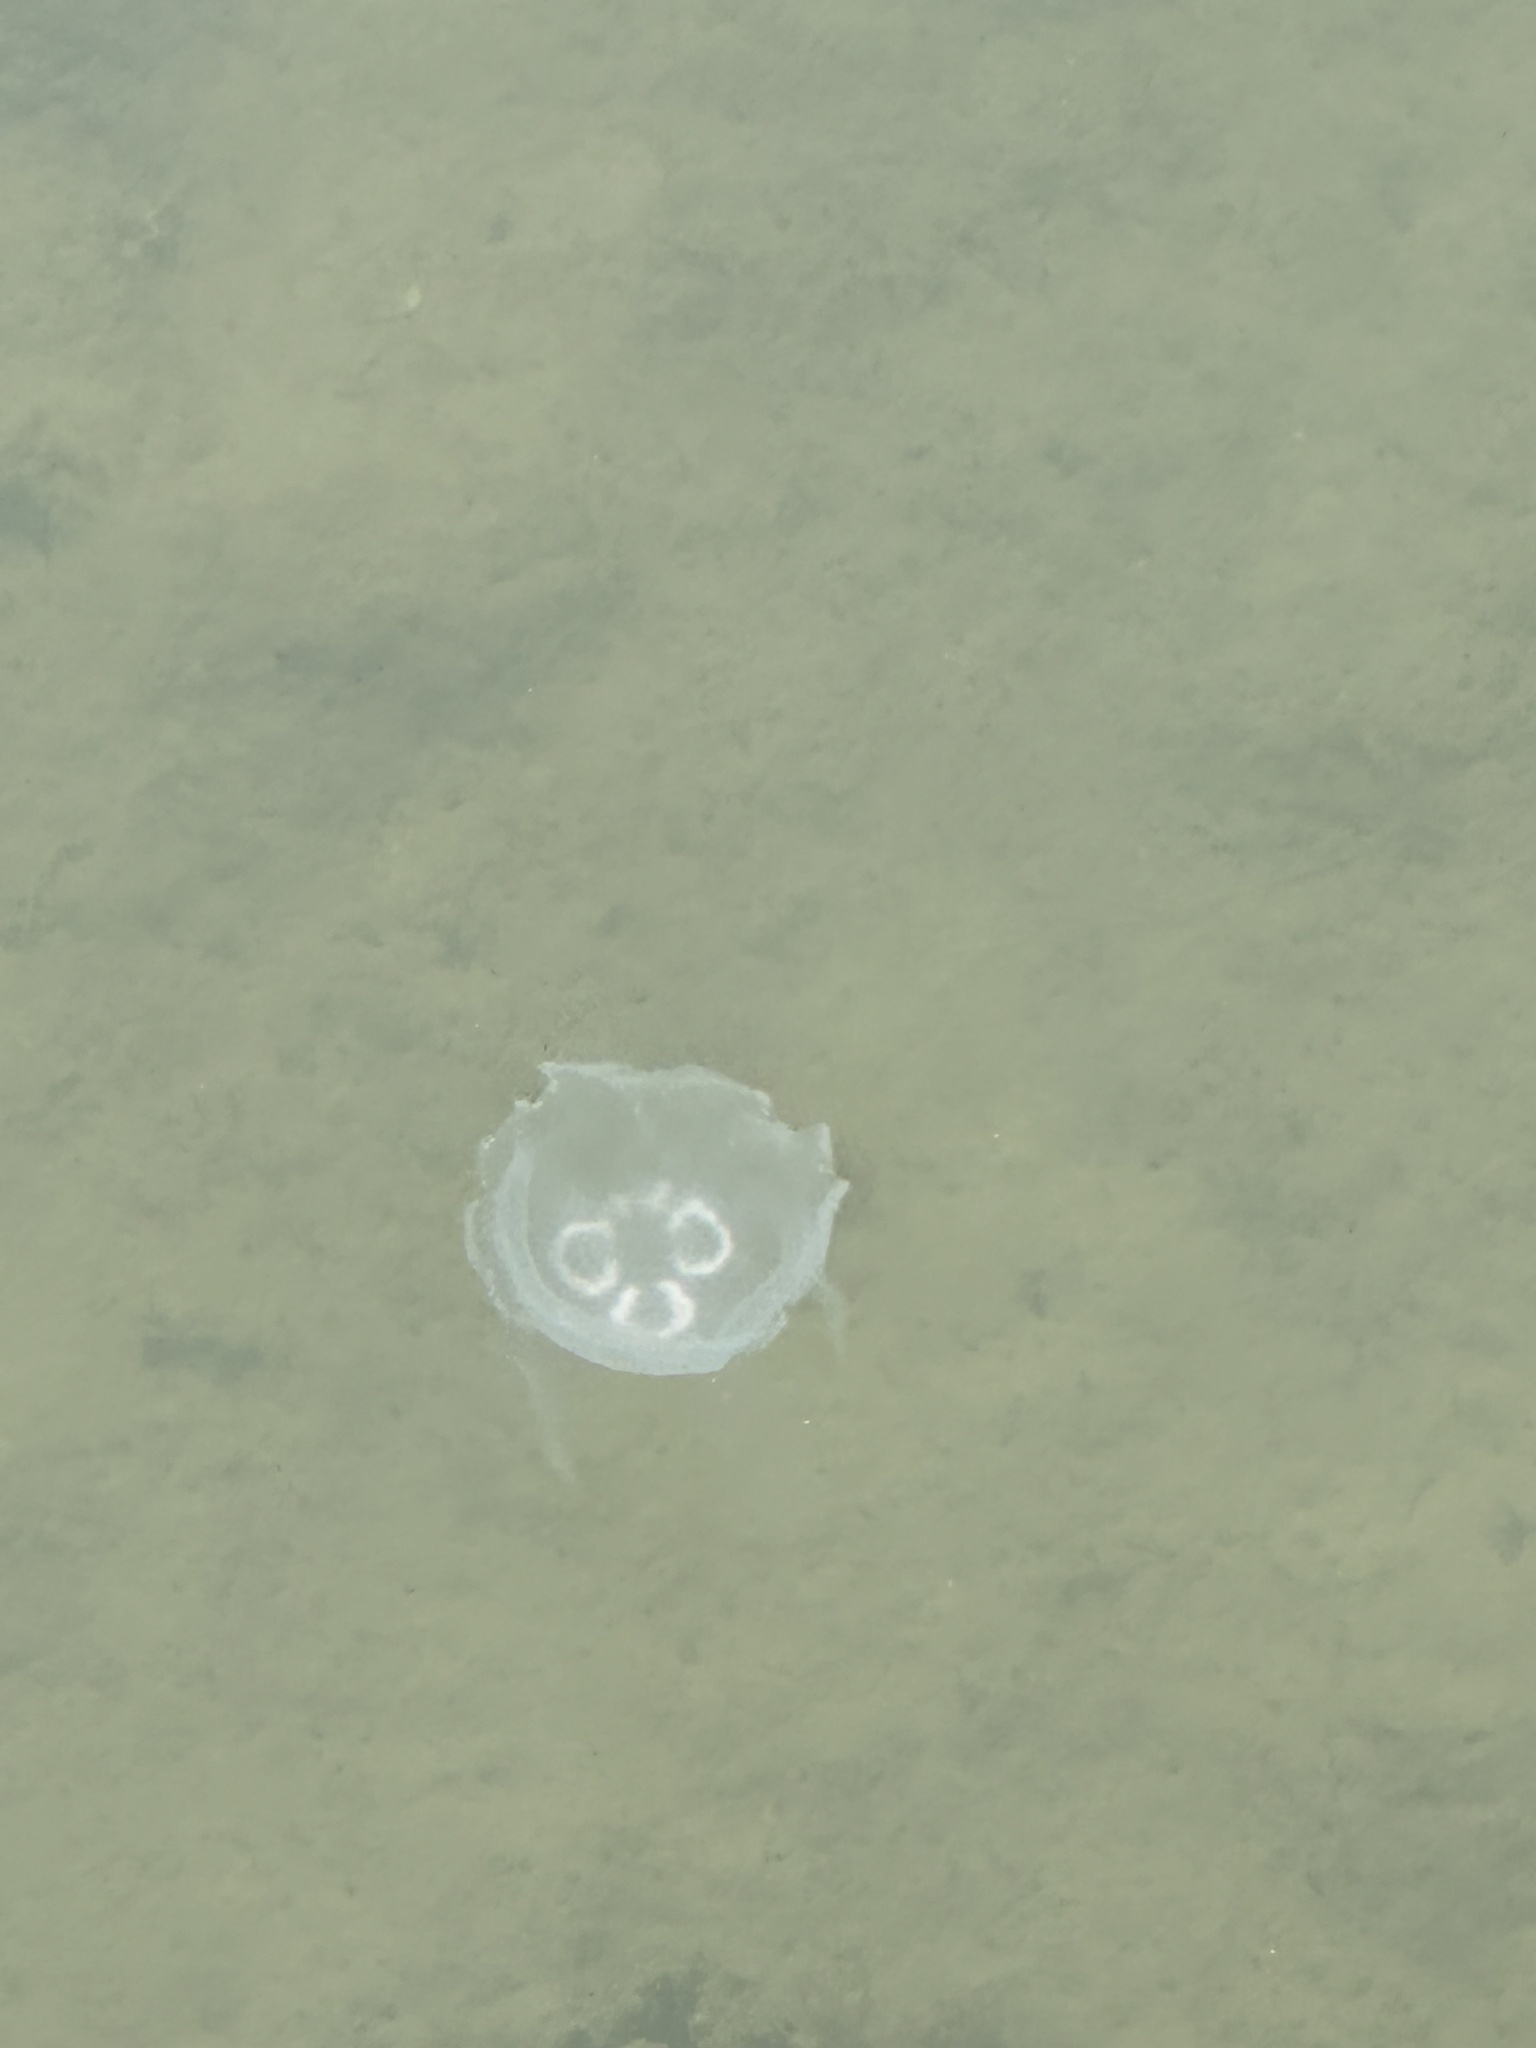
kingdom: Animalia
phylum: Cnidaria
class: Scyphozoa
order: Semaeostomeae
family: Ulmaridae
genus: Aurelia
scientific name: Aurelia coerulea
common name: Moon jellyfish
